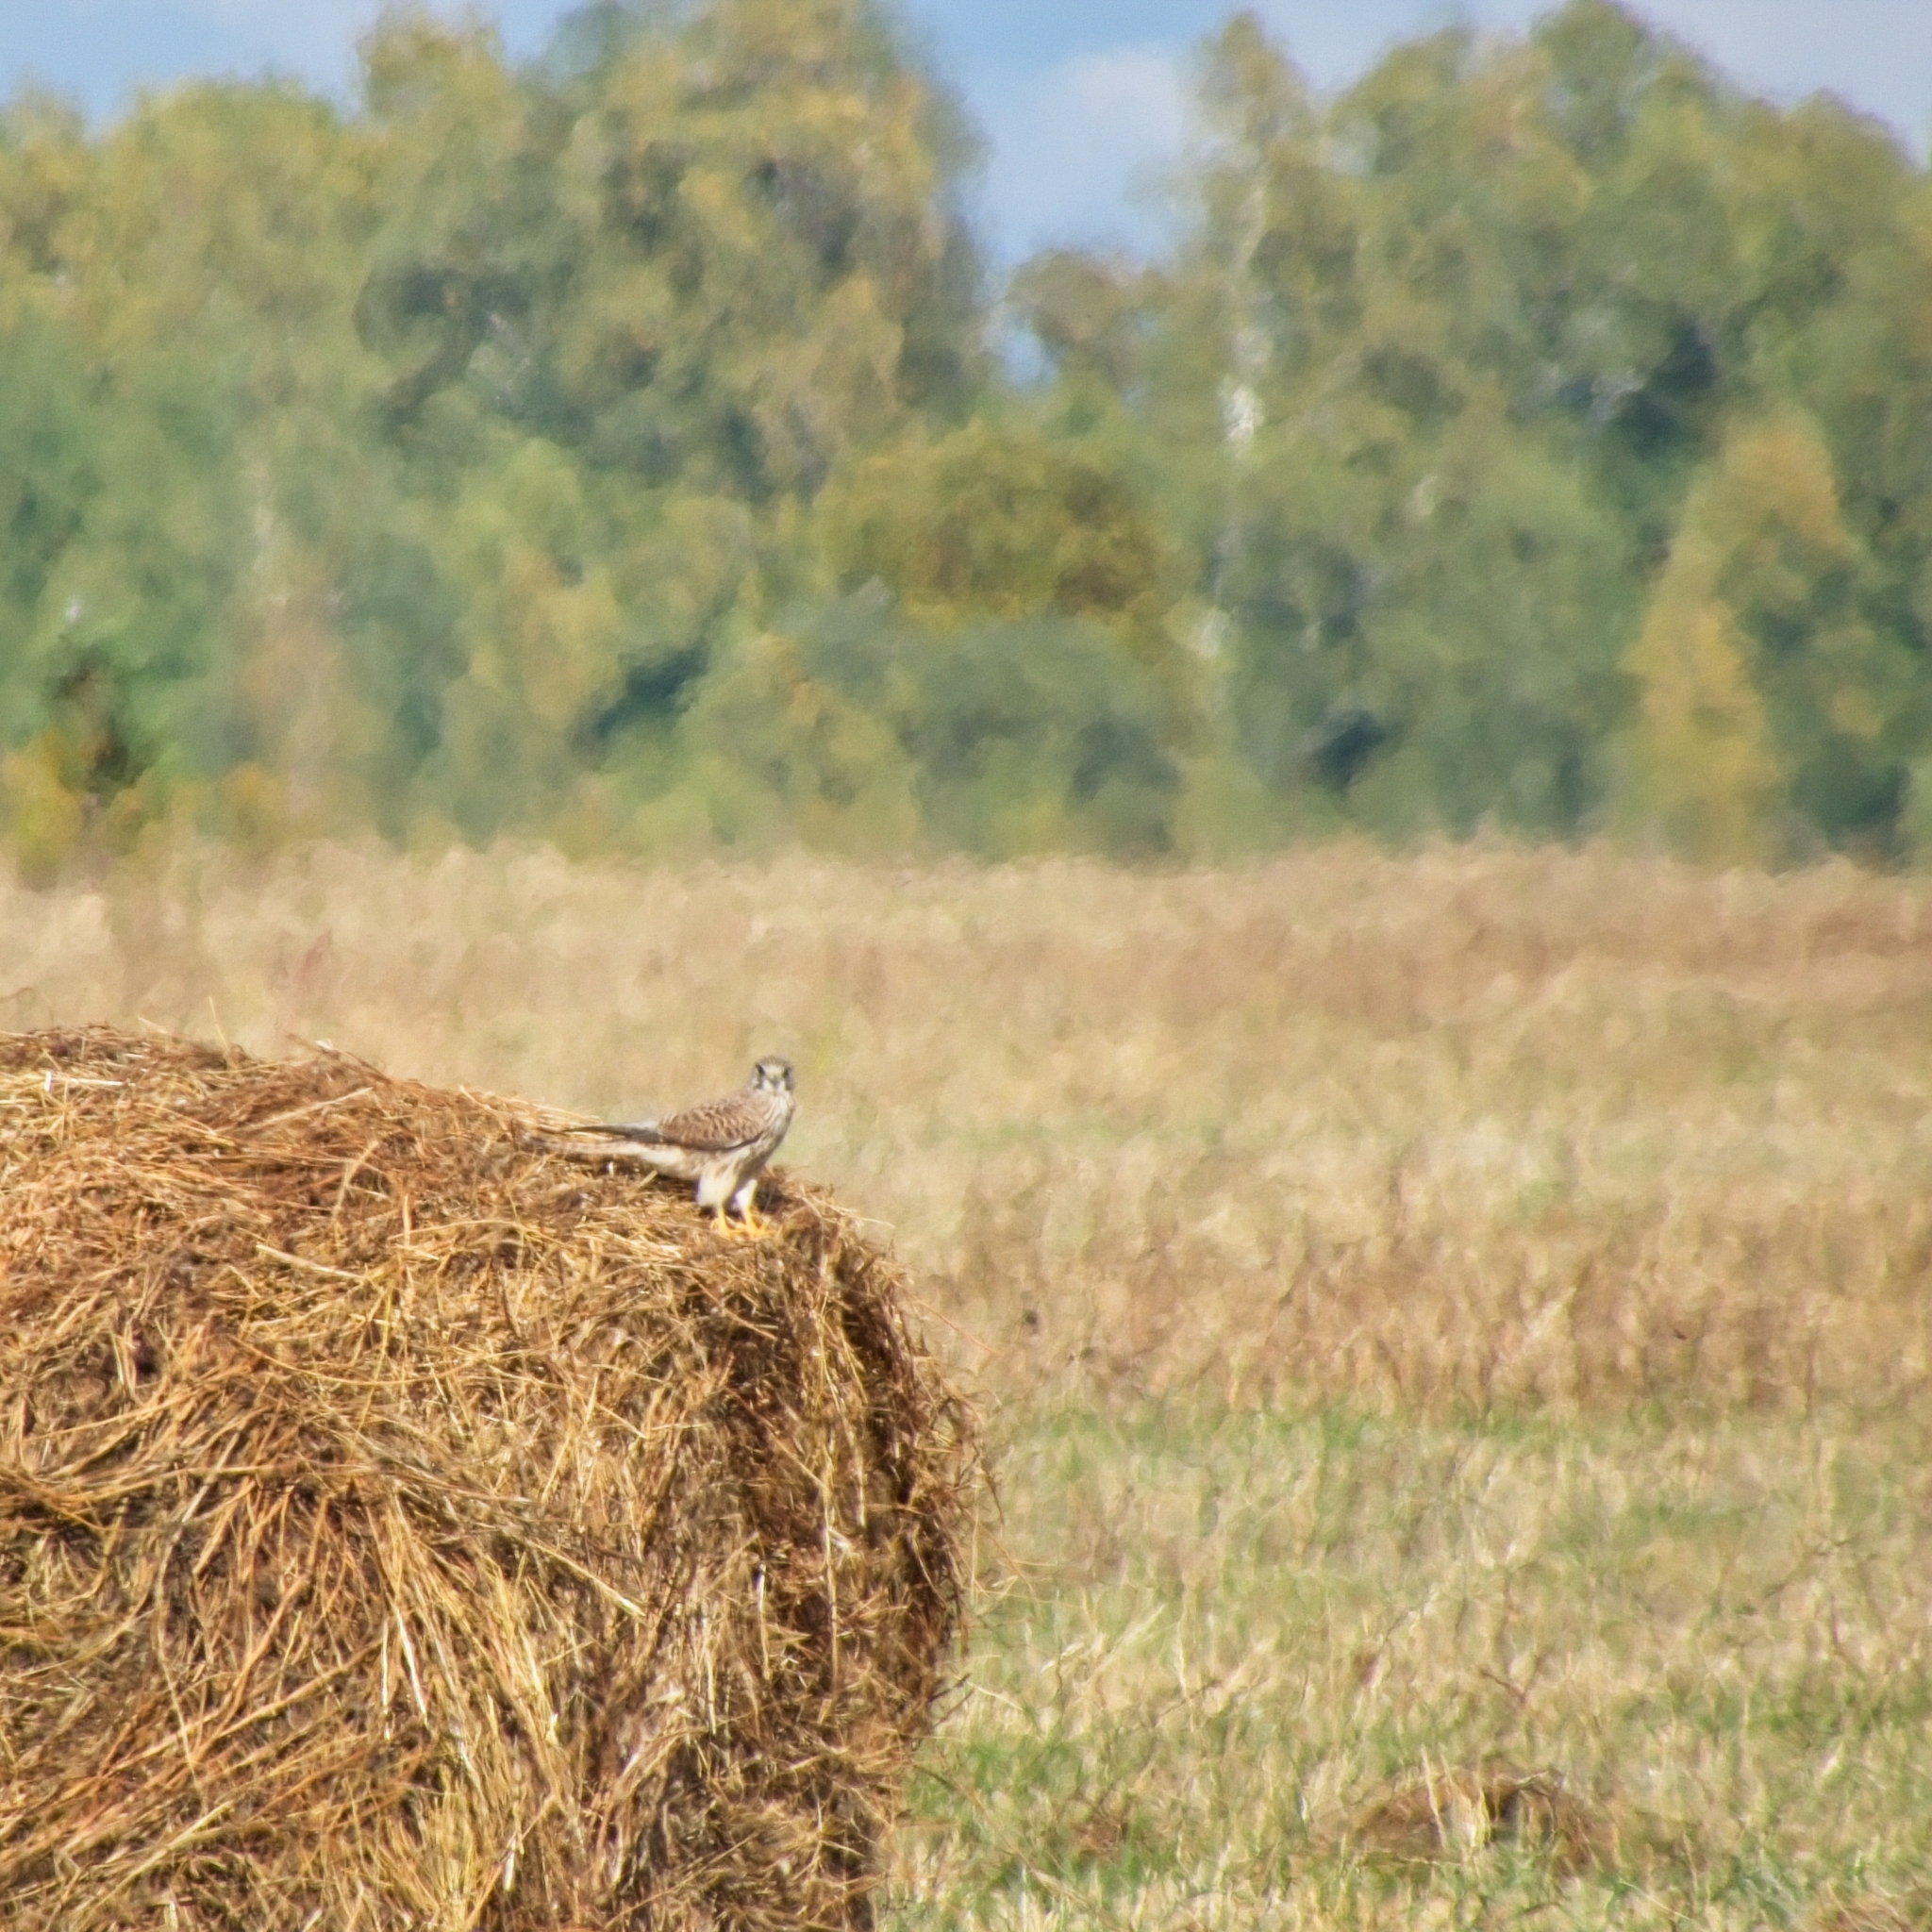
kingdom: Animalia
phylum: Chordata
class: Aves
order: Falconiformes
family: Falconidae
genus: Falco
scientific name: Falco tinnunculus
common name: Common kestrel
